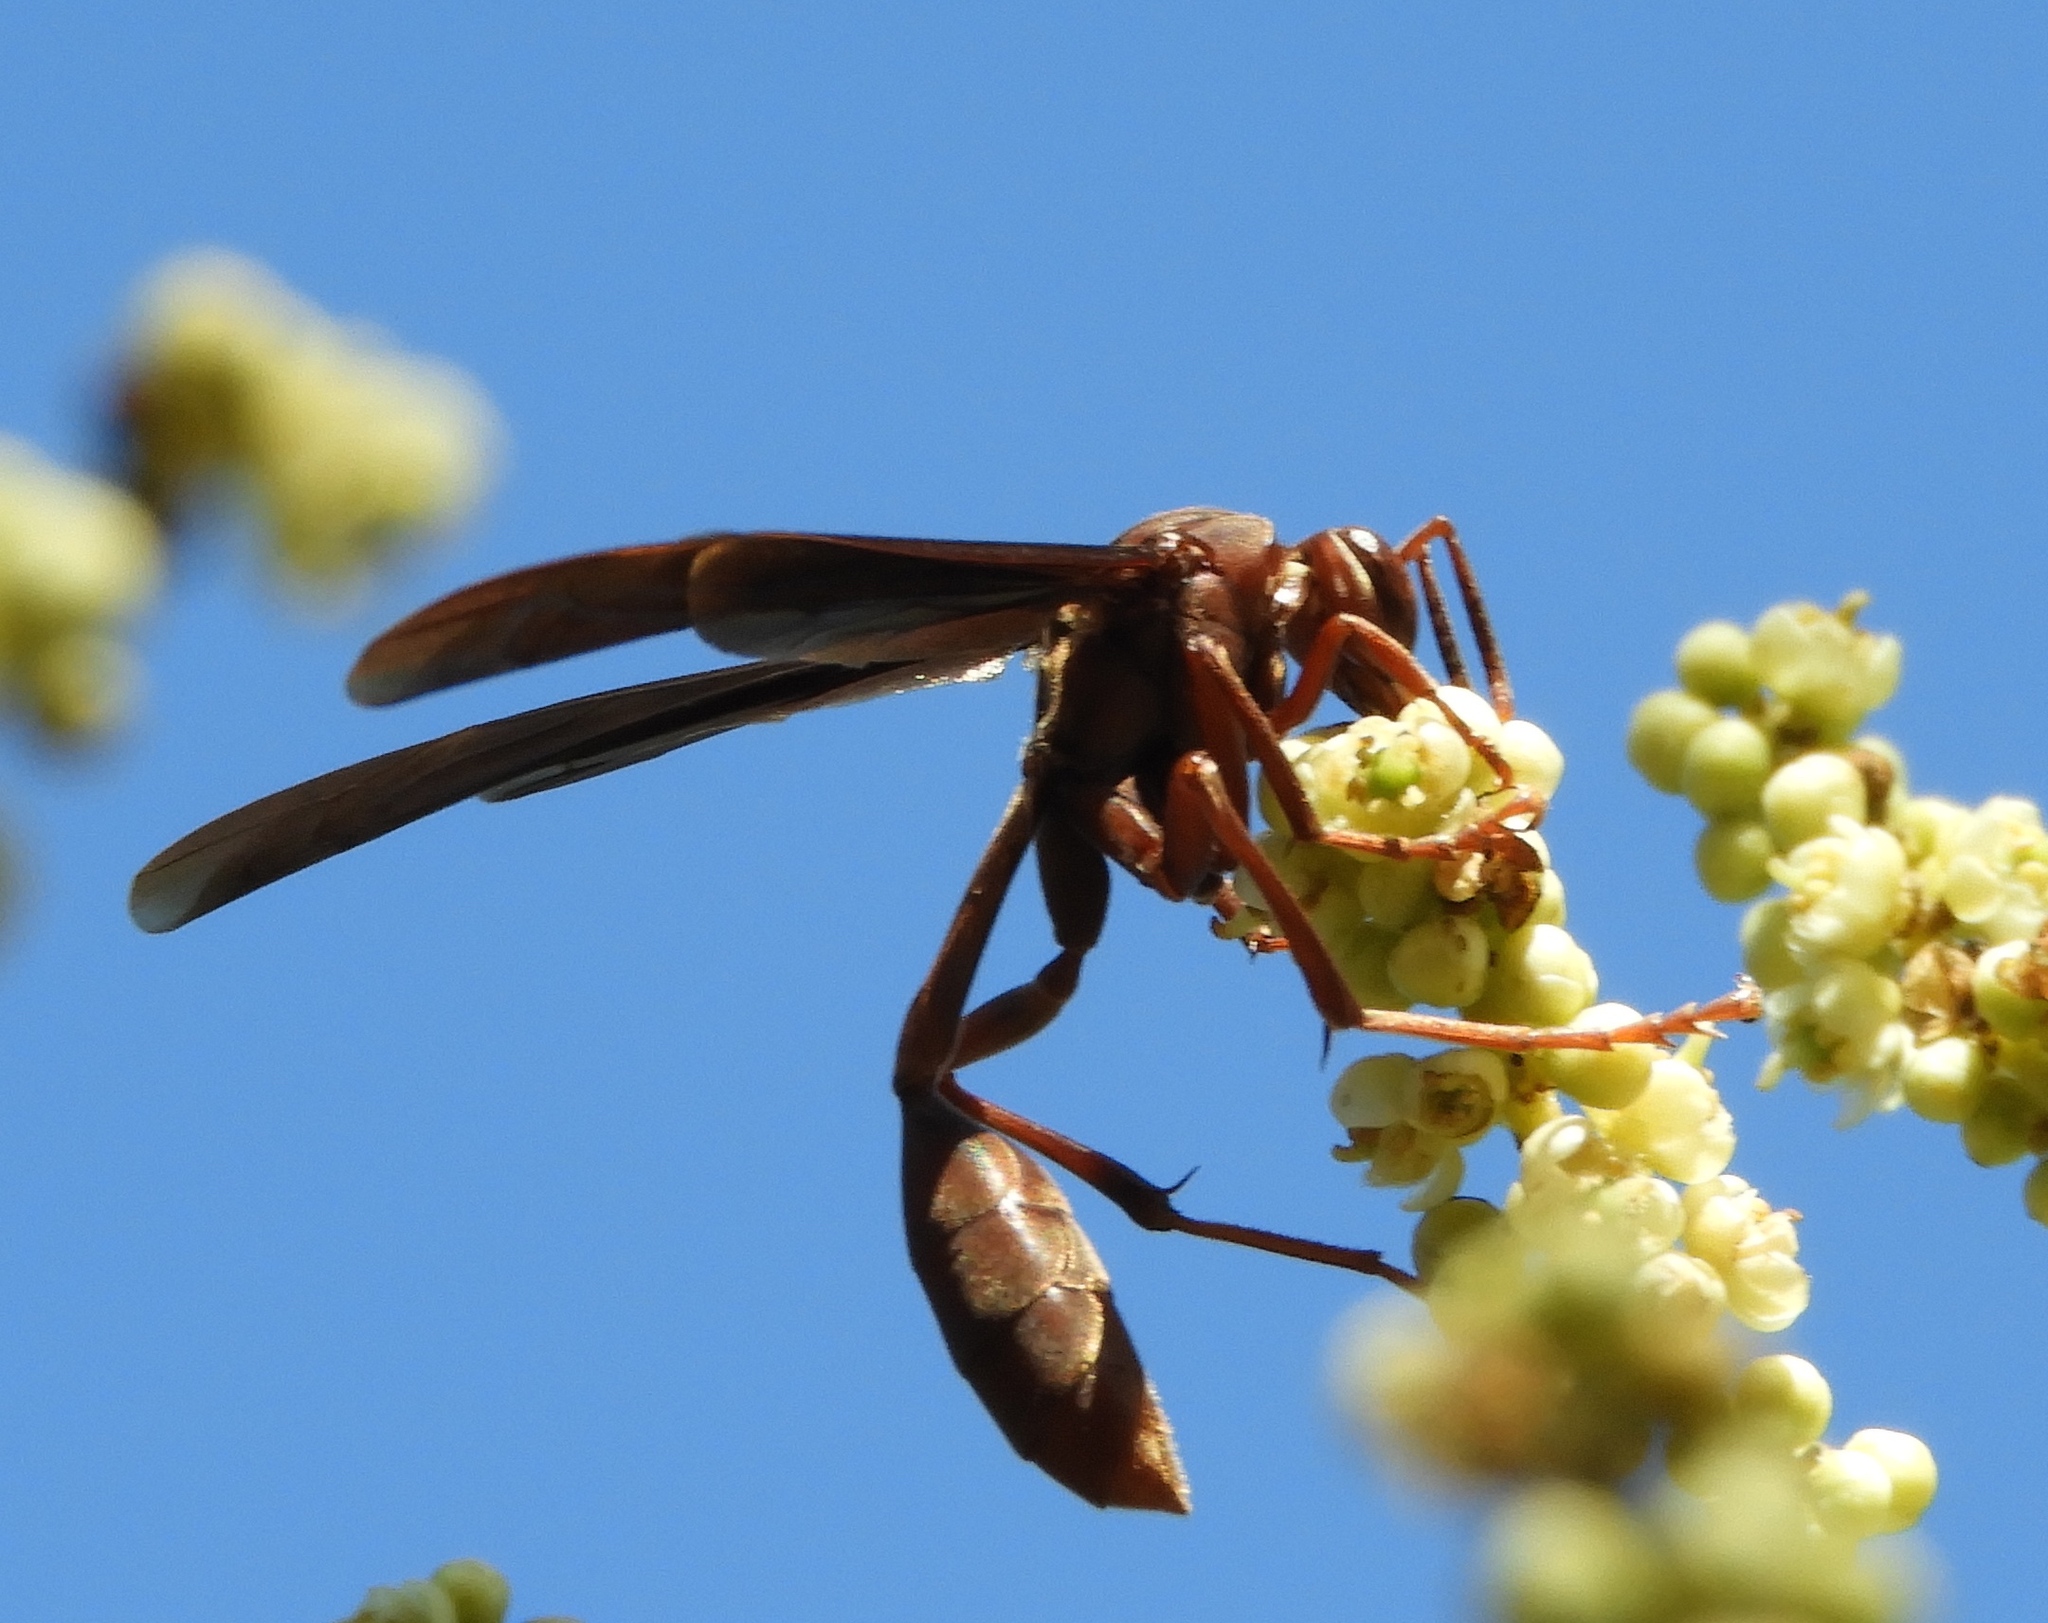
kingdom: Animalia
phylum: Arthropoda
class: Insecta
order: Hymenoptera
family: Vespidae
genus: Mischocyttarus
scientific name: Mischocyttarus melanarius
